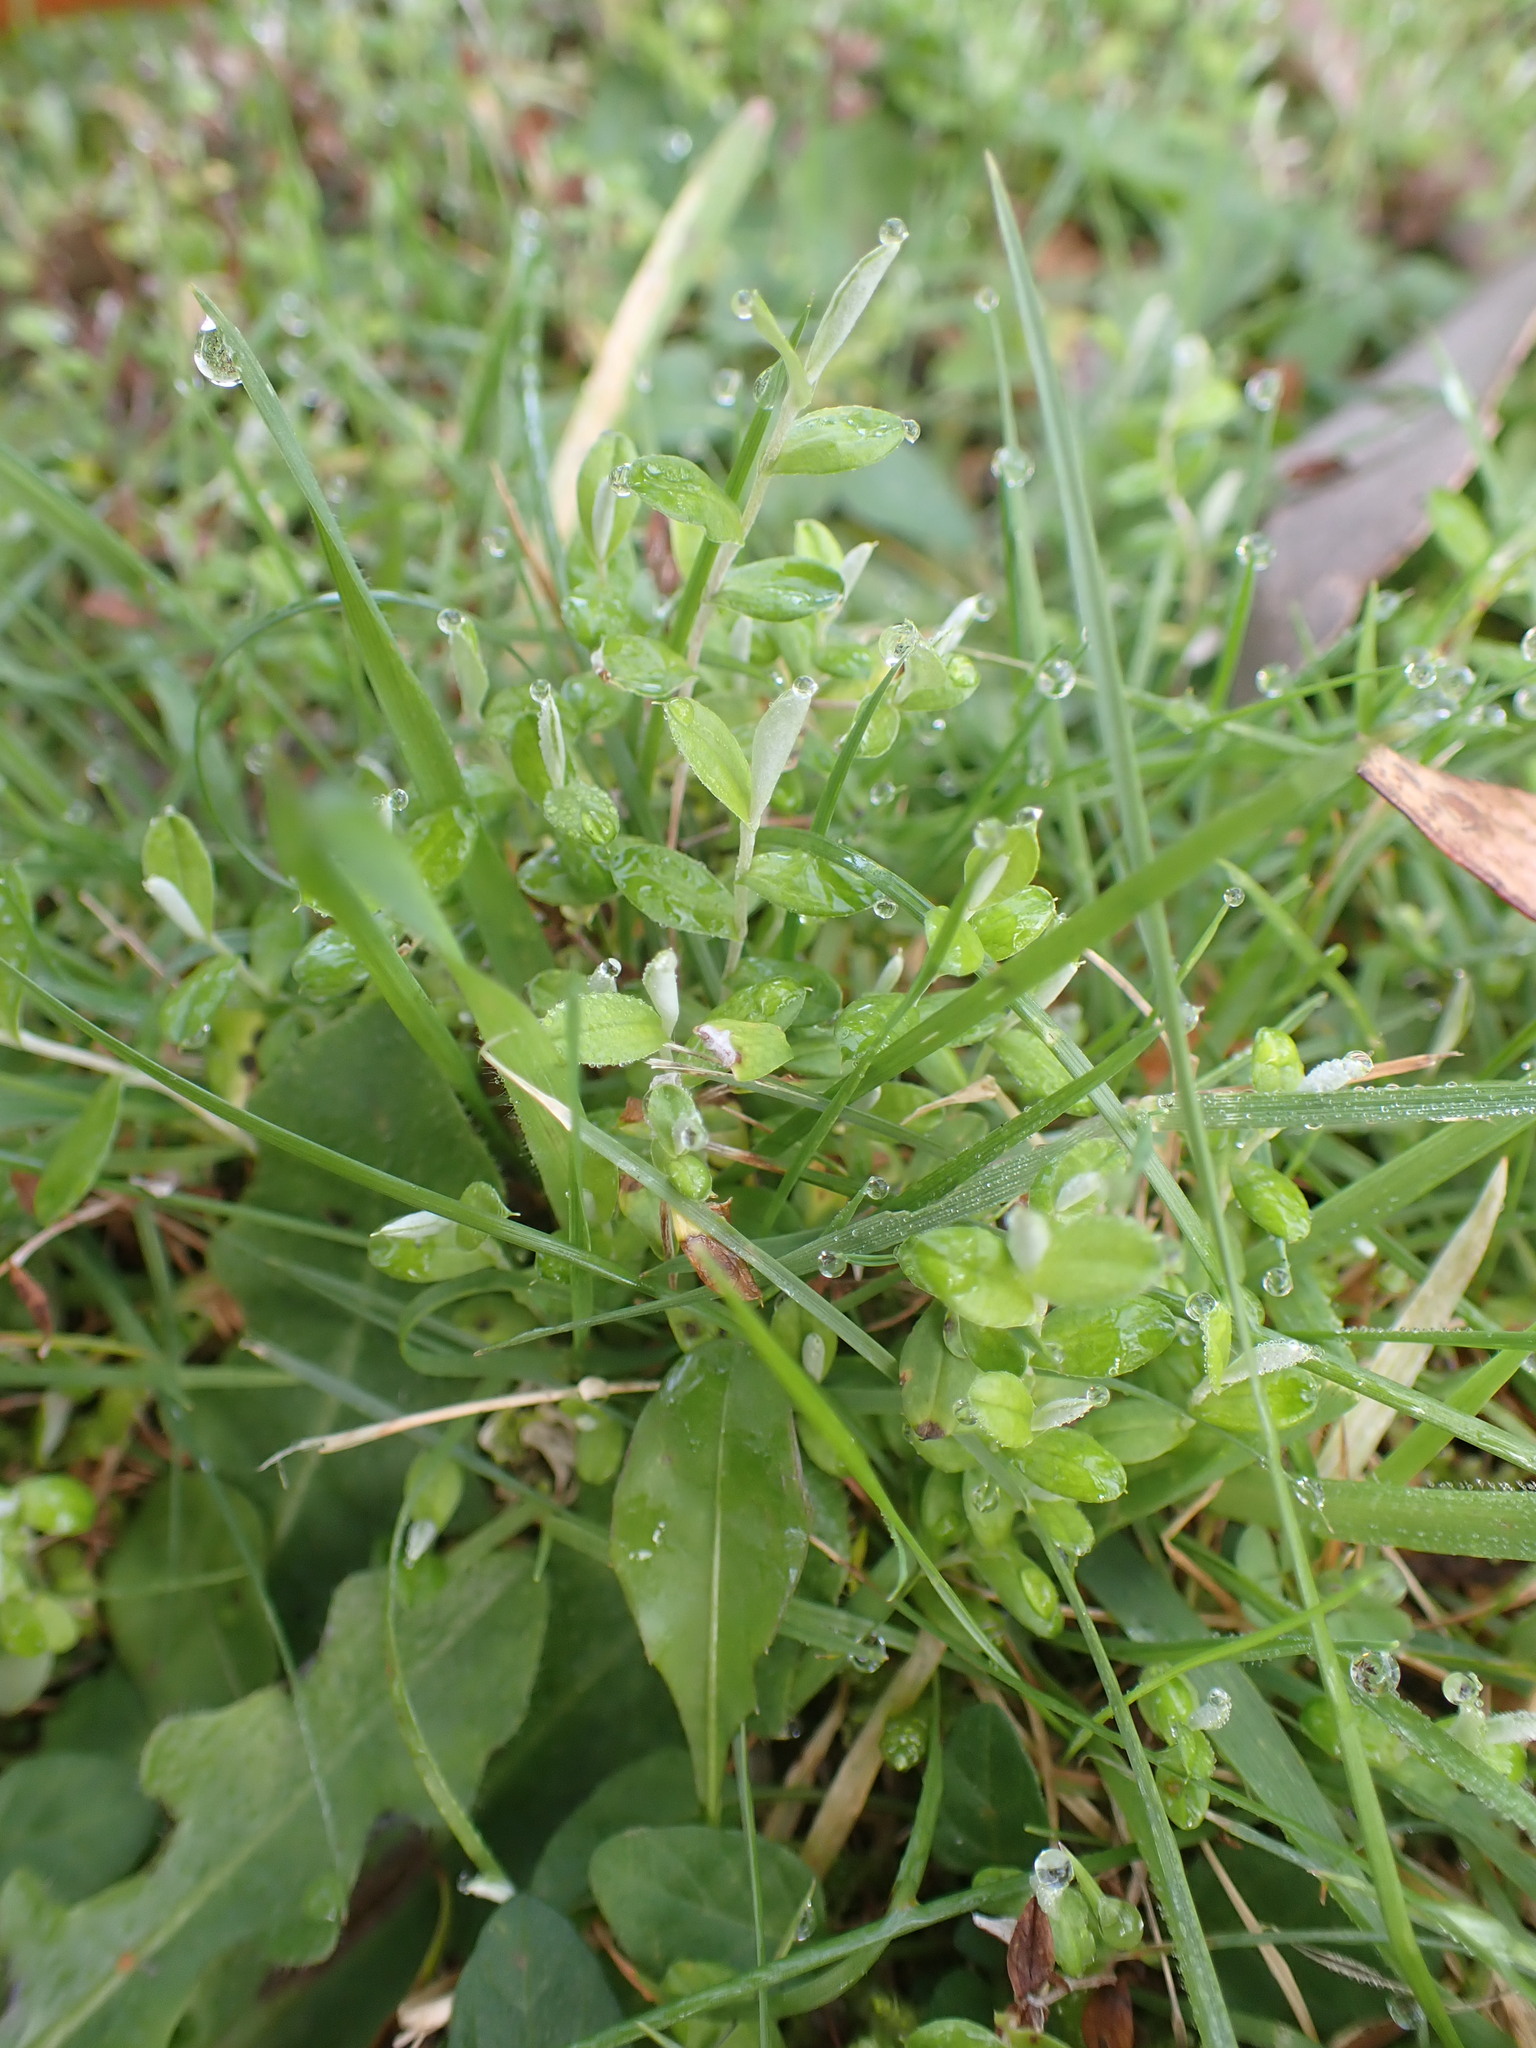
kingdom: Plantae
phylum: Tracheophyta
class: Magnoliopsida
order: Asterales
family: Asteraceae
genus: Helichrysum
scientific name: Helichrysum filicaule
